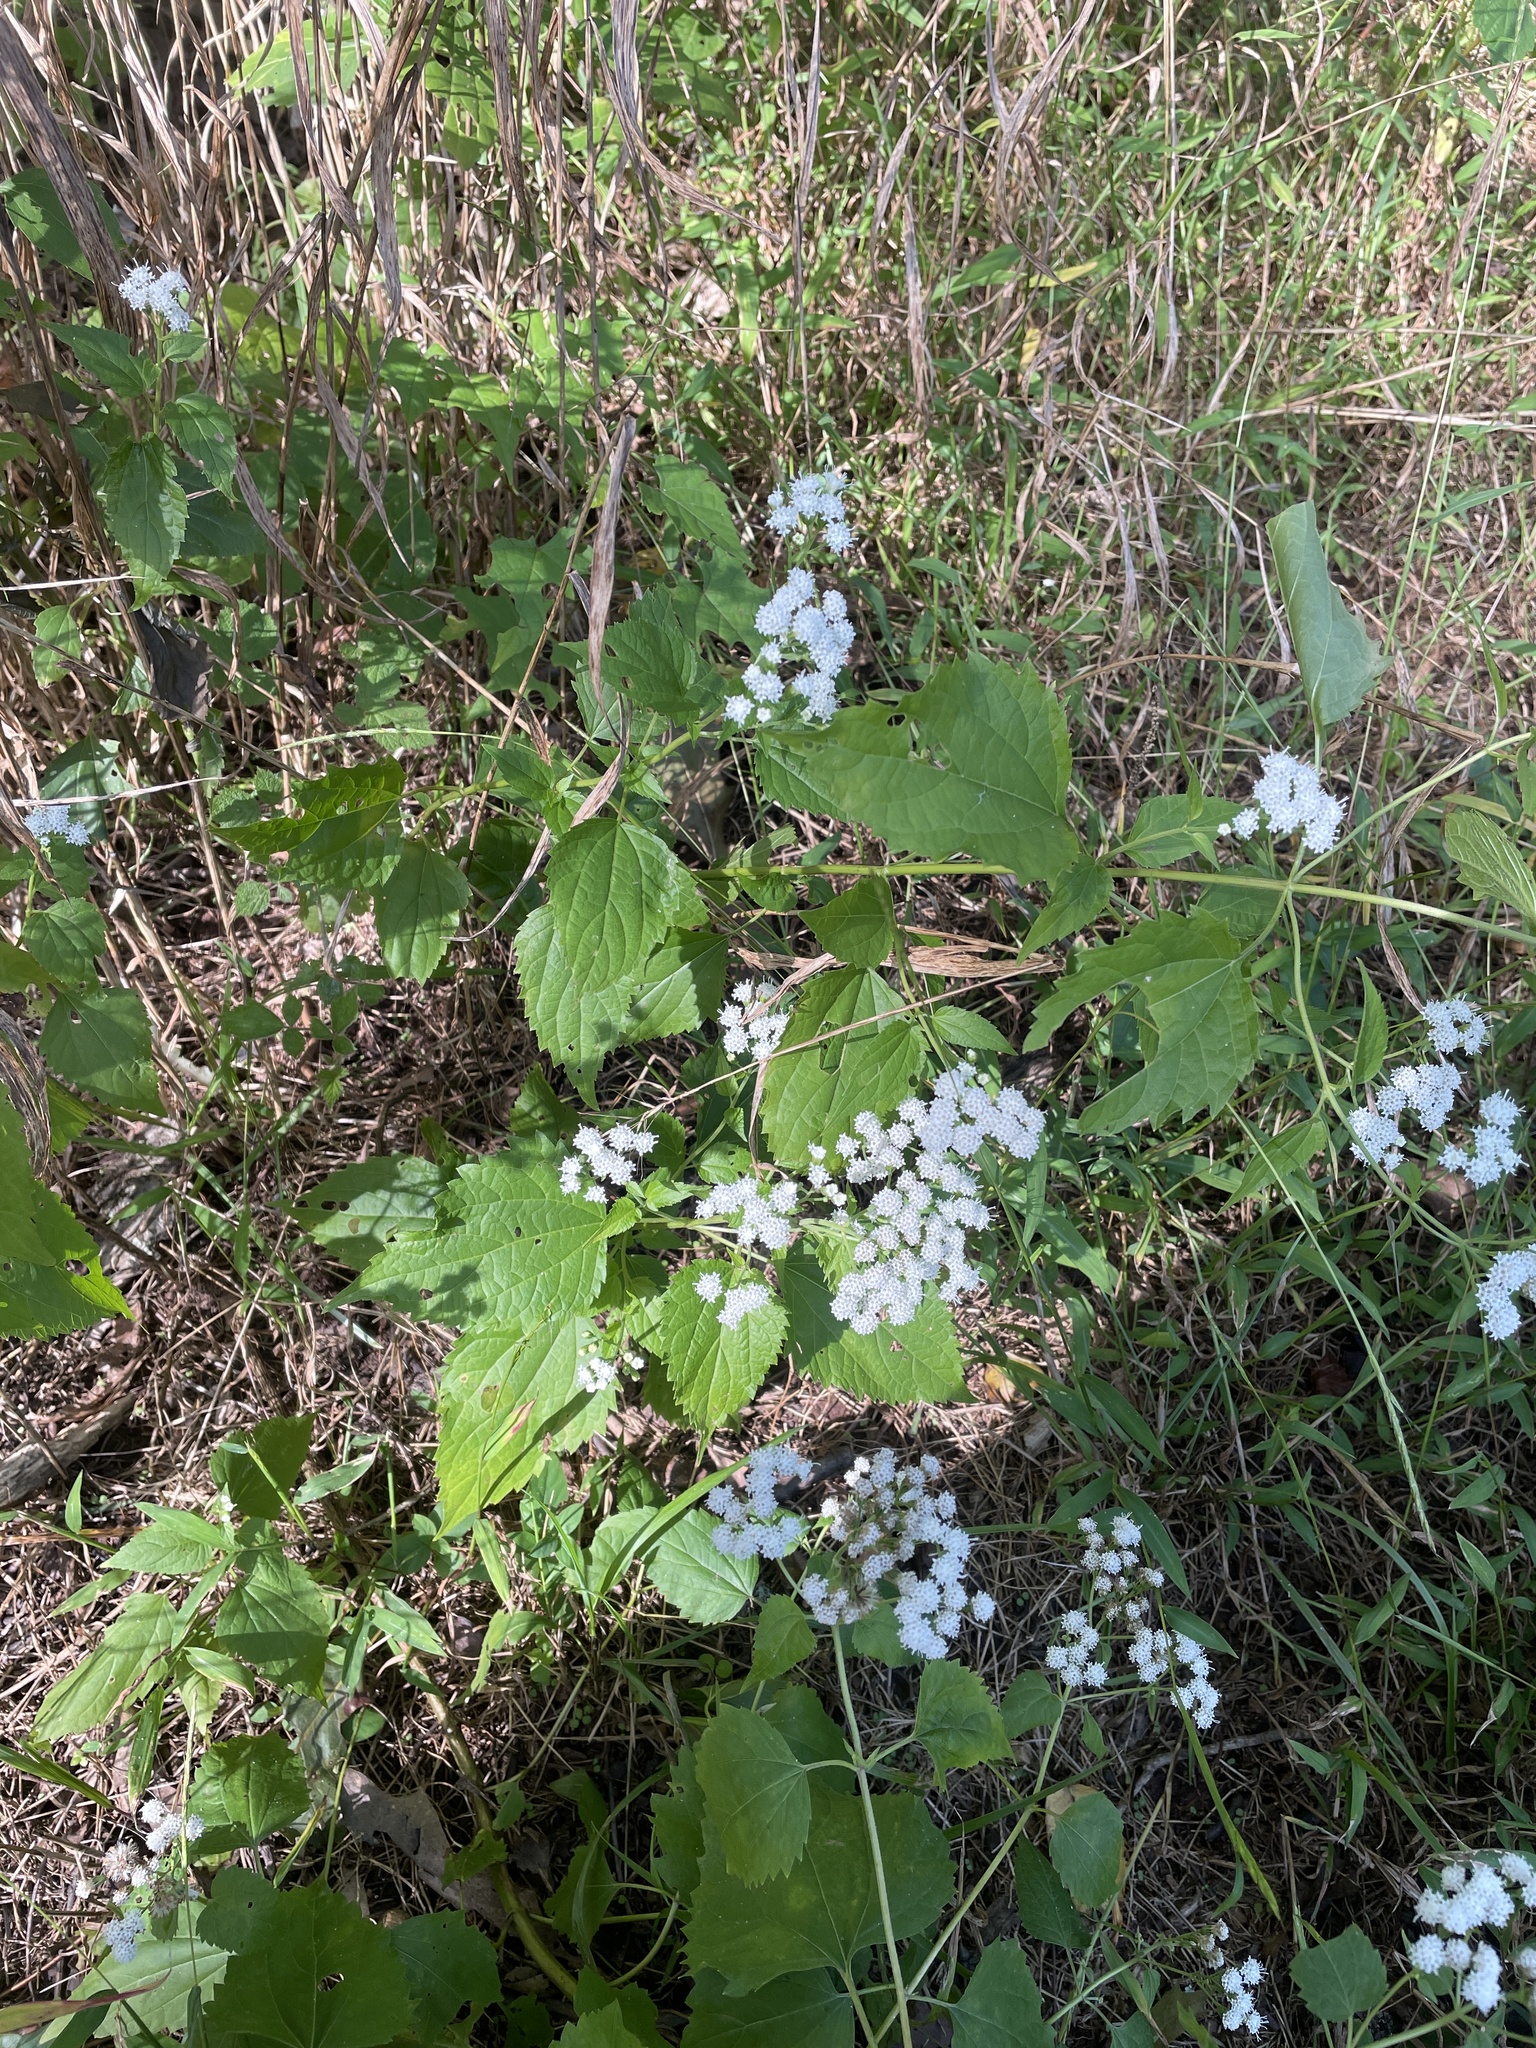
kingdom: Plantae
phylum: Tracheophyta
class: Magnoliopsida
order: Asterales
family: Asteraceae
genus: Ageratina
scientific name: Ageratina altissima
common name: White snakeroot
